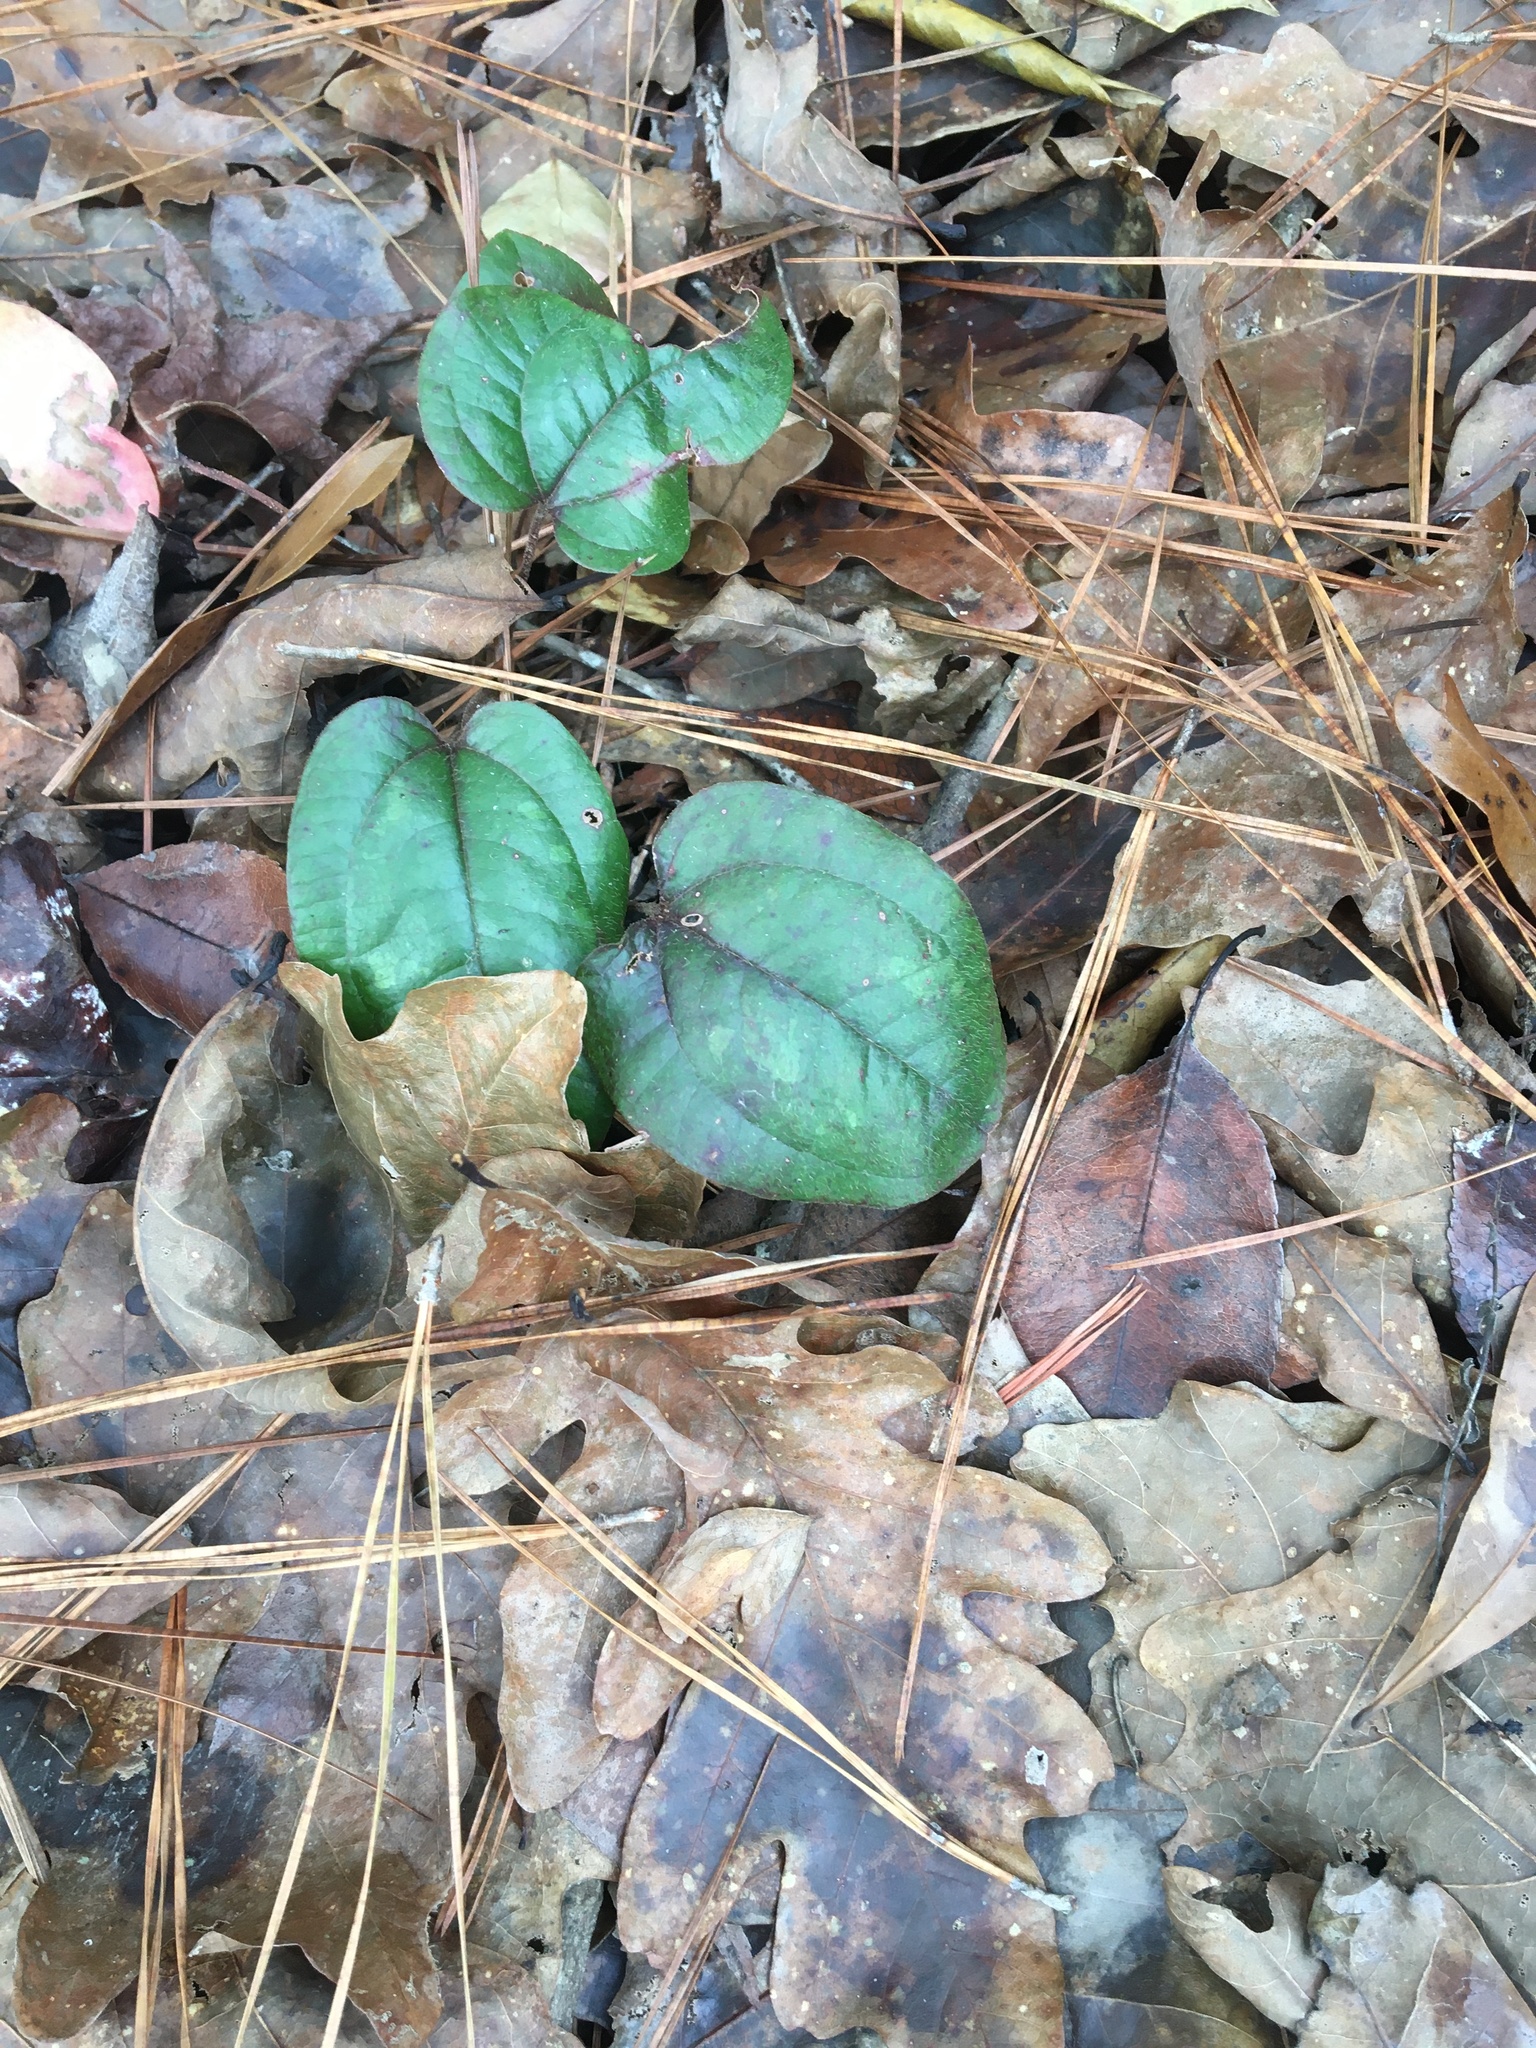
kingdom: Plantae
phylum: Tracheophyta
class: Liliopsida
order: Liliales
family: Smilacaceae
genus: Smilax
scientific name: Smilax pumila
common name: Sarsaparilla-vine
